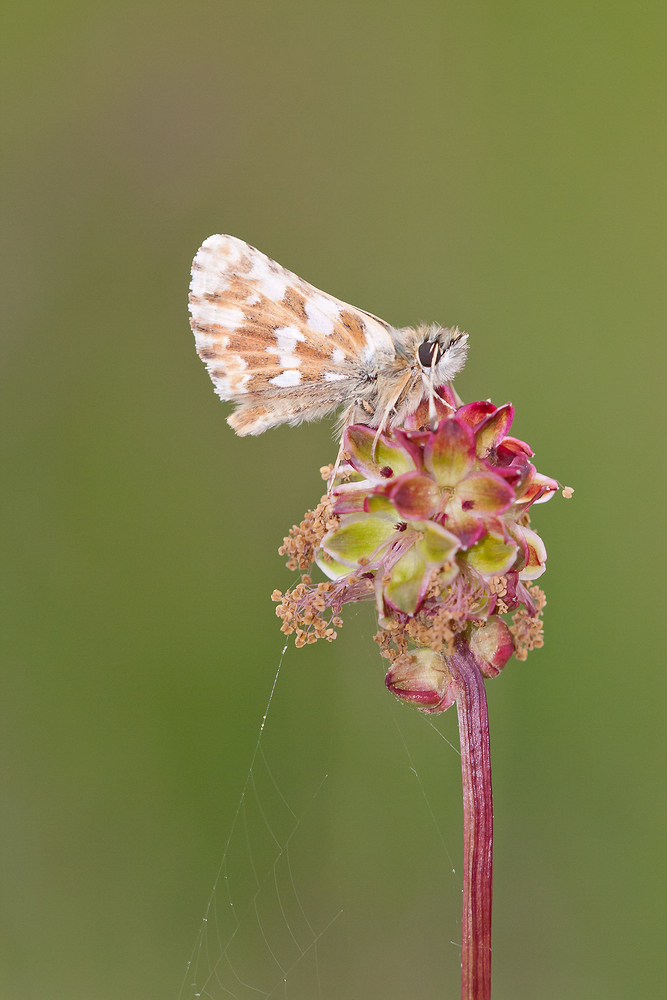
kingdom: Animalia
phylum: Arthropoda
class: Insecta
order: Lepidoptera
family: Hesperiidae
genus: Spialia
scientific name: Spialia sertorius
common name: Red underwing skipper
